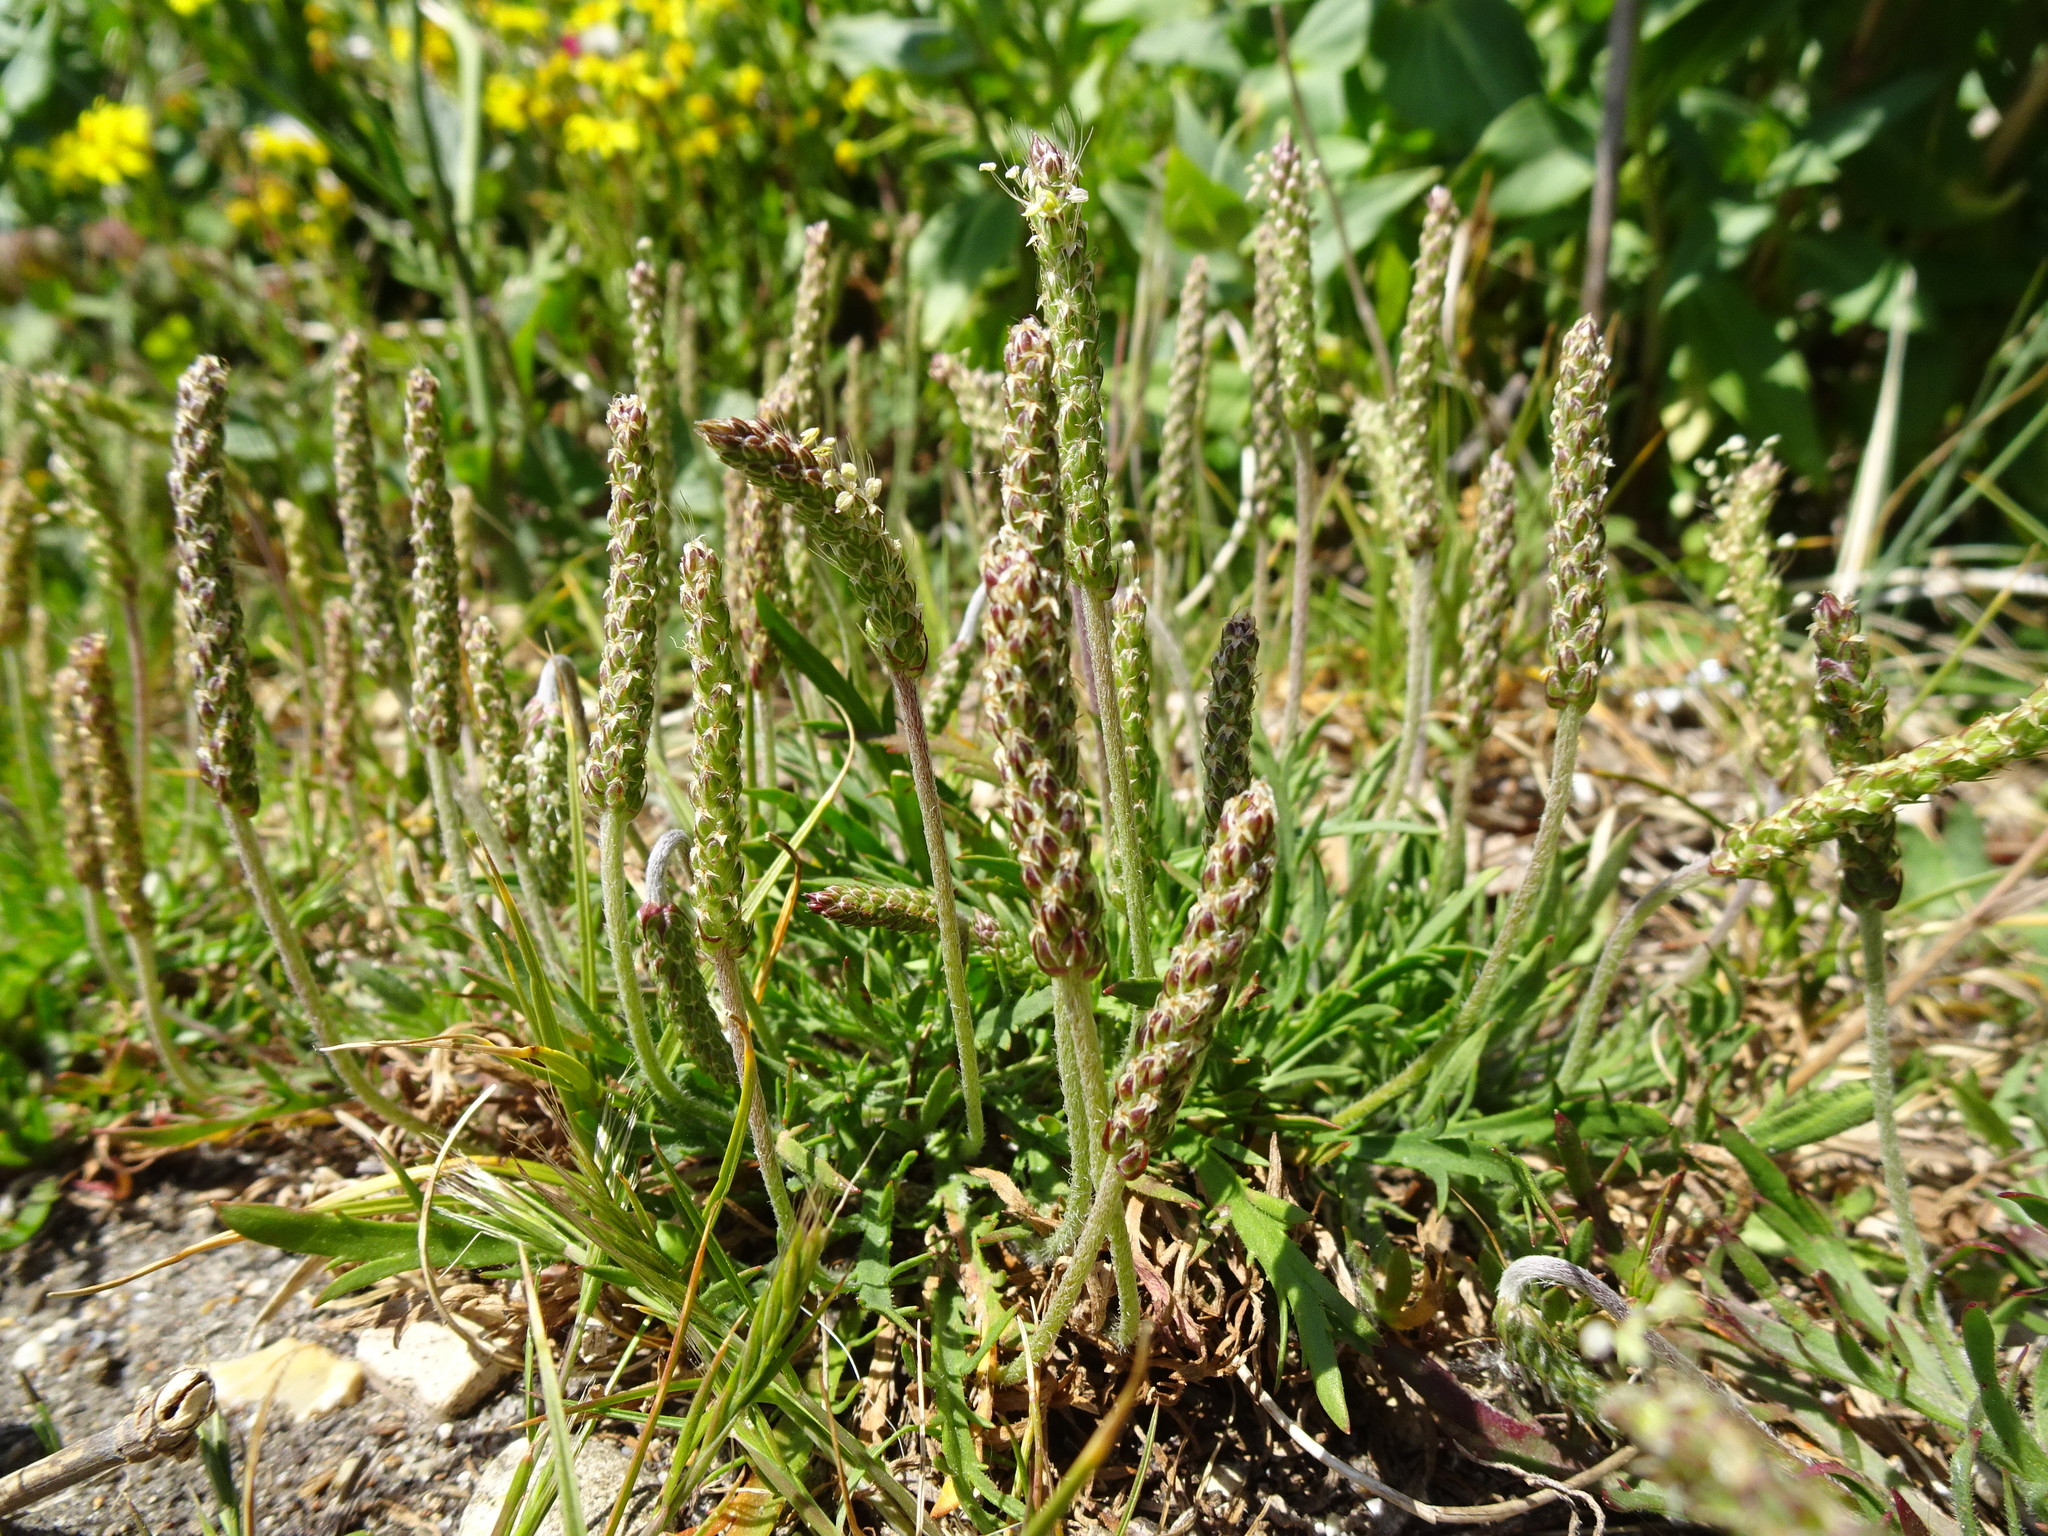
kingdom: Plantae
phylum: Tracheophyta
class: Magnoliopsida
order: Lamiales
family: Plantaginaceae
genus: Plantago
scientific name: Plantago coronopus
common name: Buck's-horn plantain
